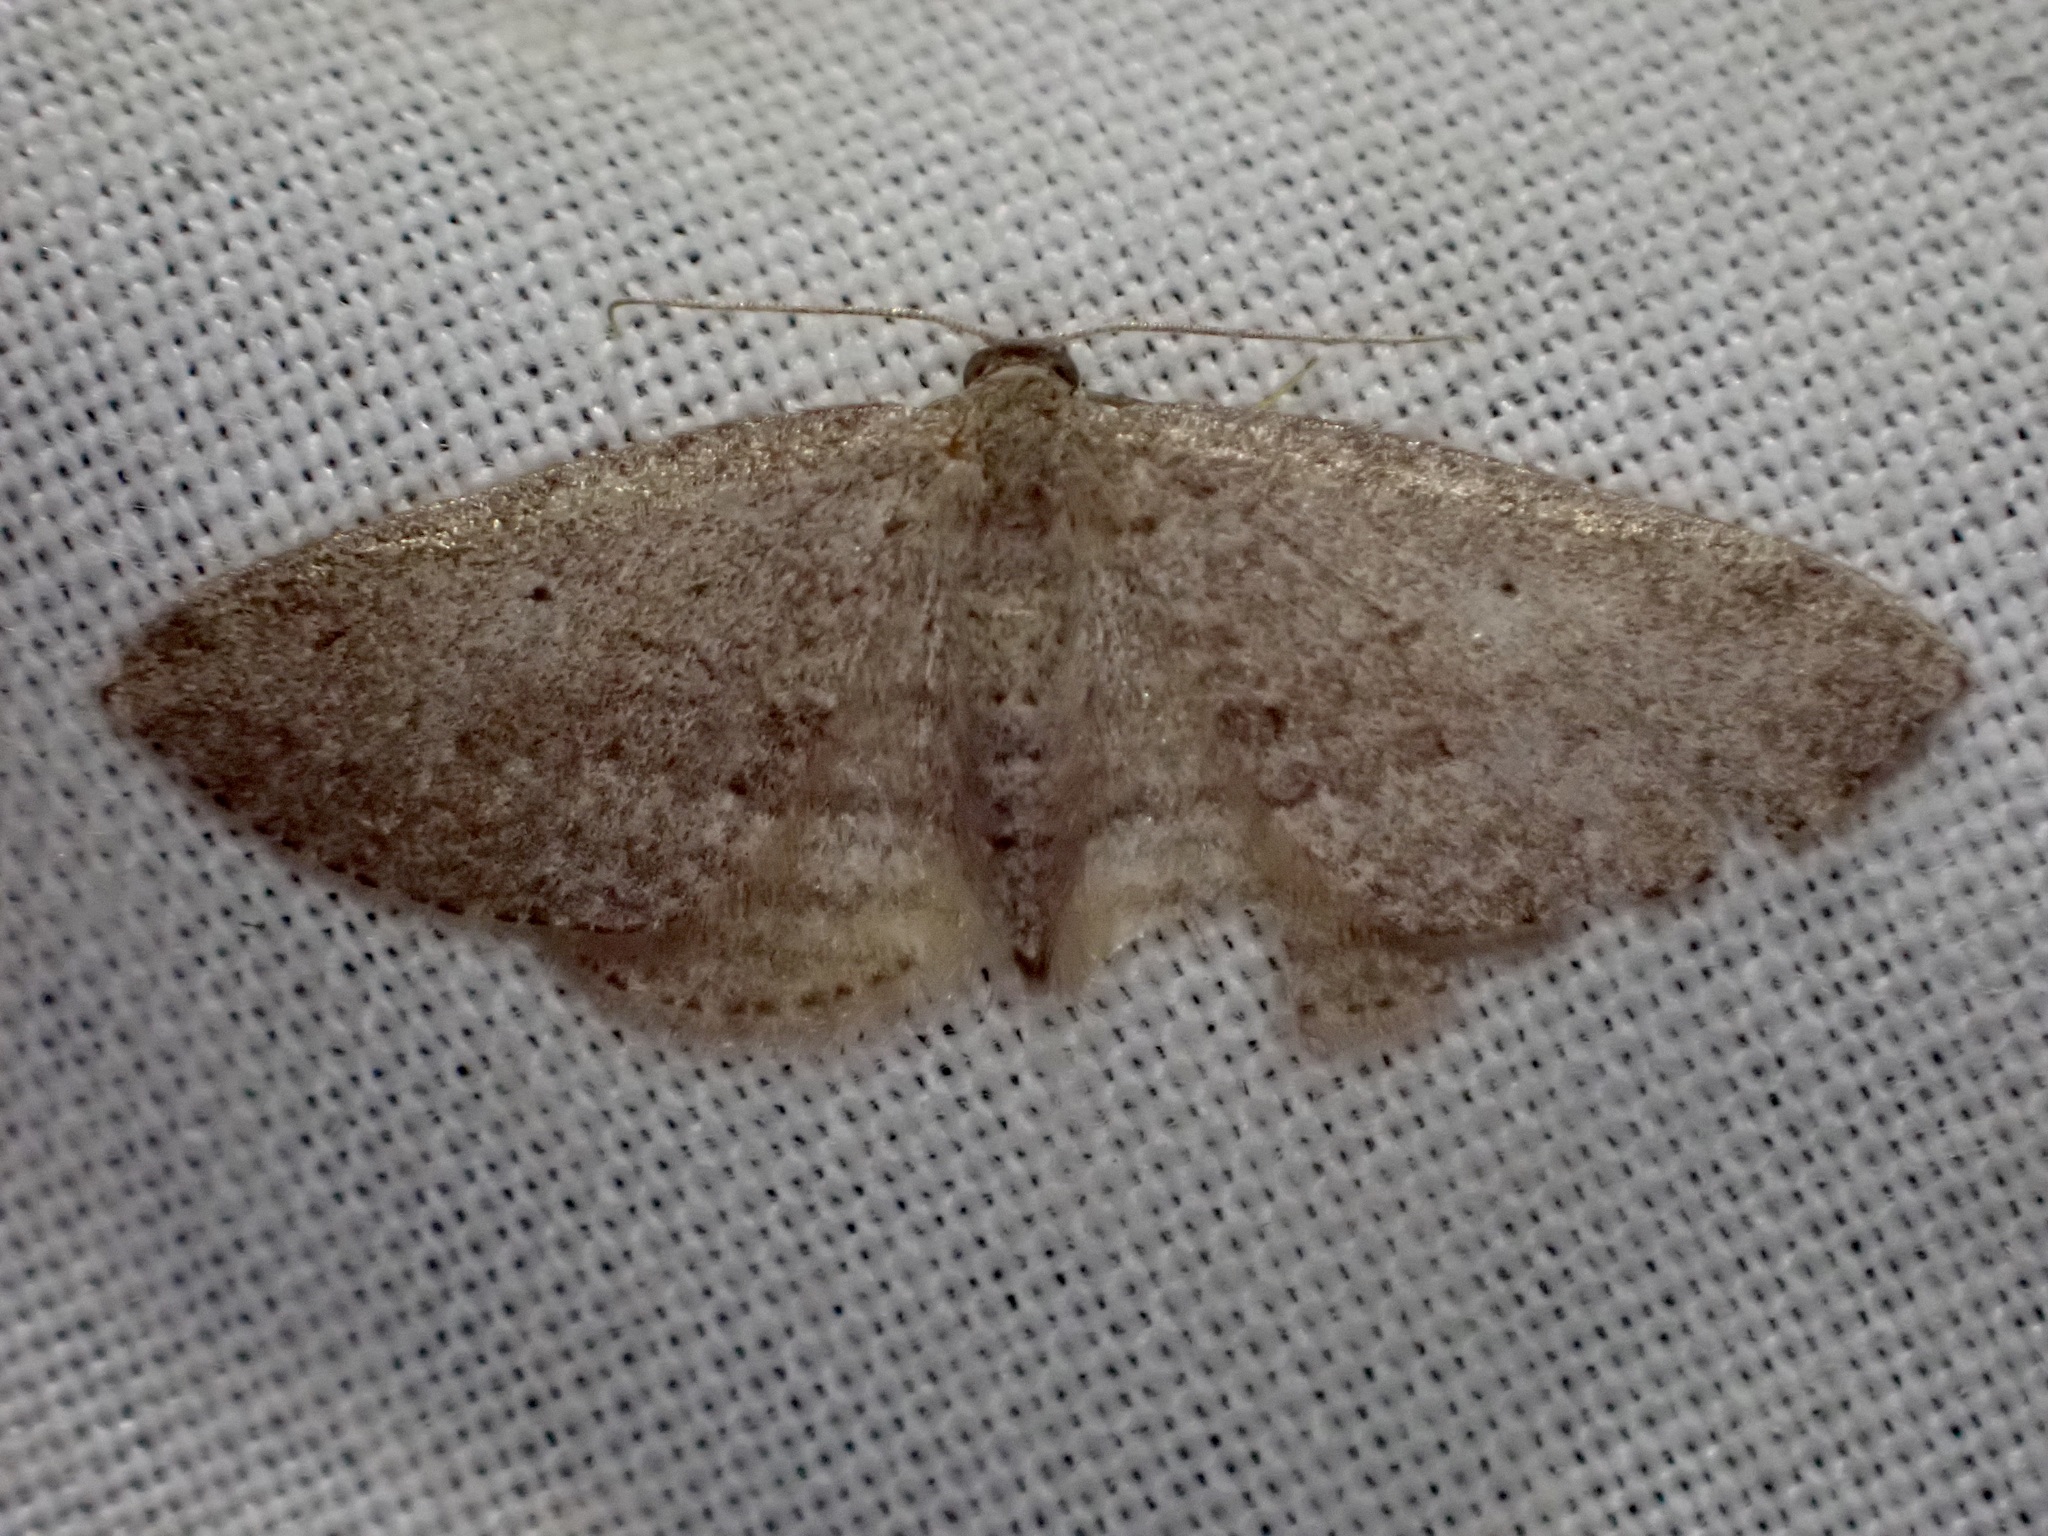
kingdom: Animalia
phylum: Arthropoda
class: Insecta
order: Lepidoptera
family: Geometridae
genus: Poecilasthena
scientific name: Poecilasthena schistaria
